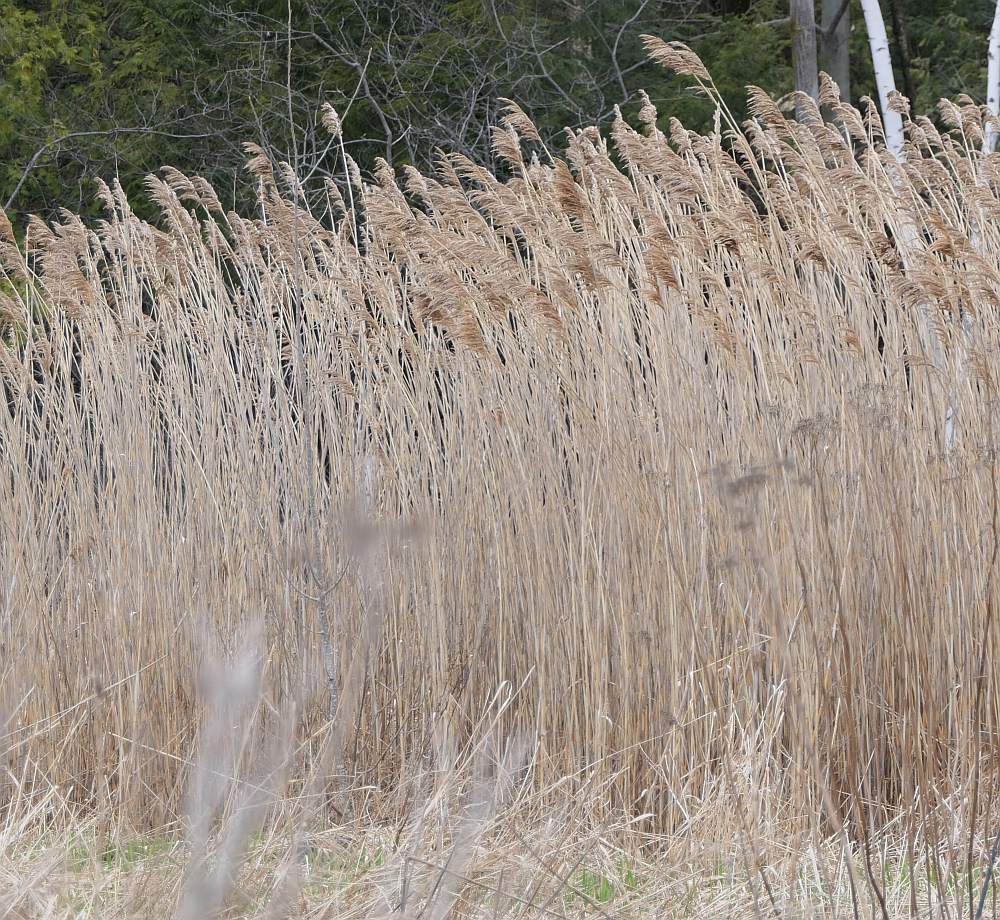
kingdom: Plantae
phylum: Tracheophyta
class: Liliopsida
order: Poales
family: Poaceae
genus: Phragmites
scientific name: Phragmites australis
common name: Common reed
